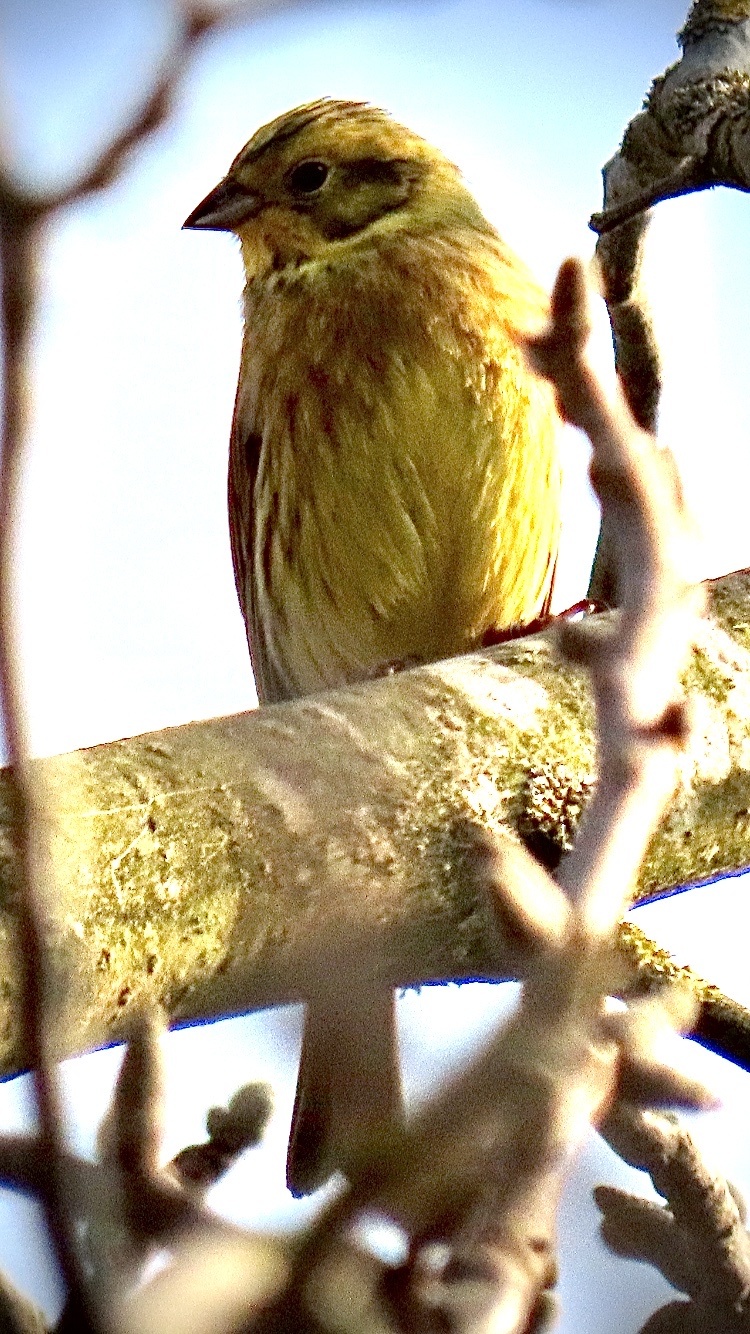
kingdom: Animalia
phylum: Chordata
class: Aves
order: Passeriformes
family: Emberizidae
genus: Emberiza
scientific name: Emberiza citrinella
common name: Yellowhammer
